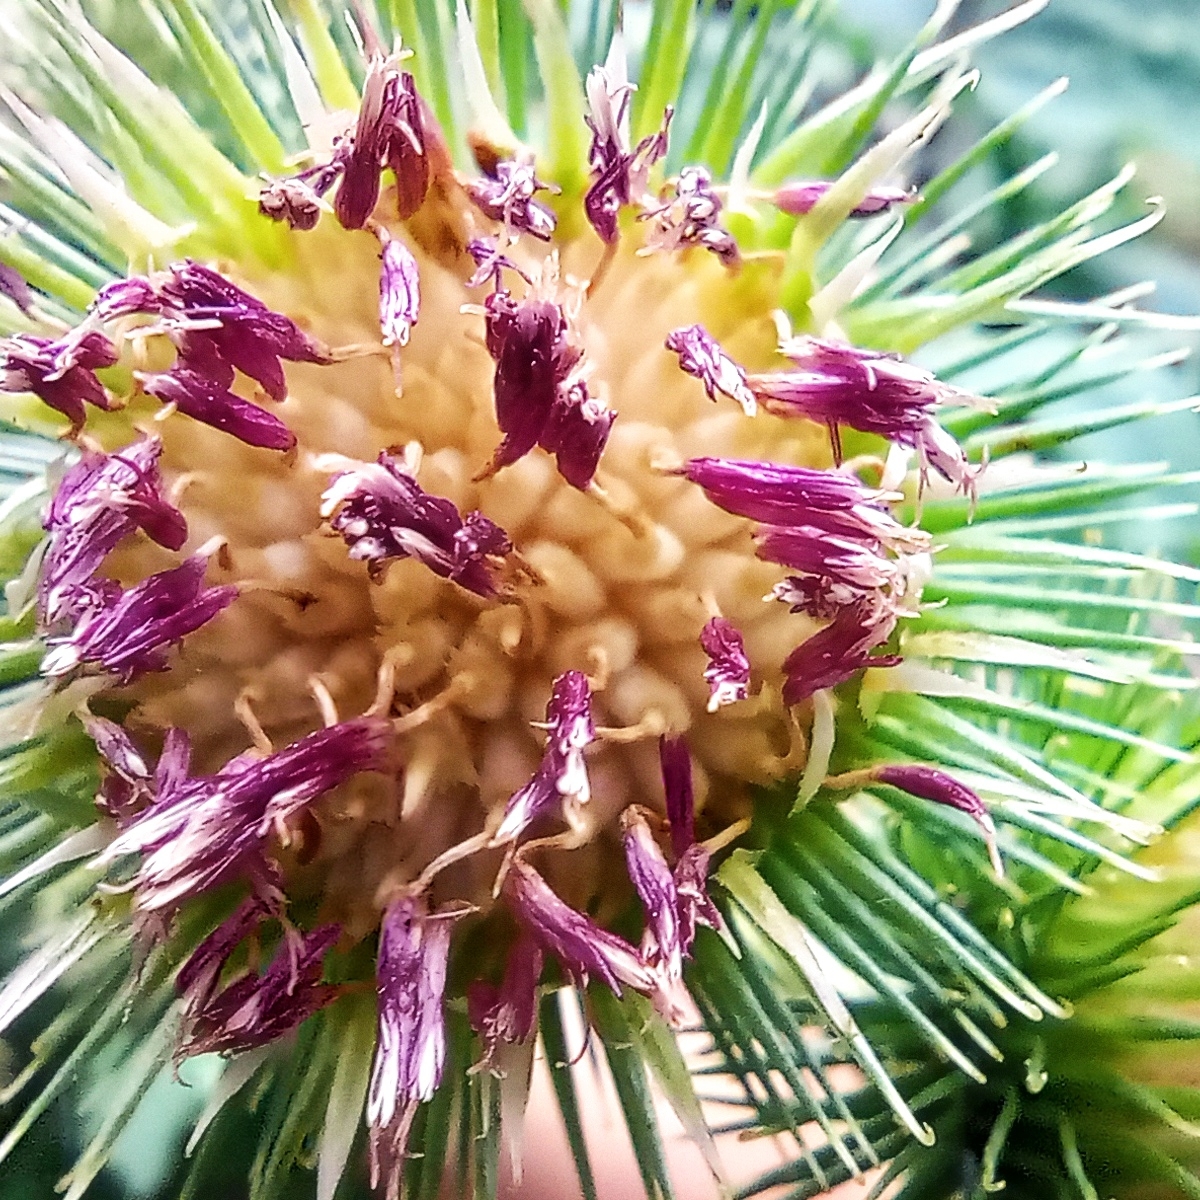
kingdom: Plantae
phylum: Tracheophyta
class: Magnoliopsida
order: Asterales
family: Asteraceae
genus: Arctium
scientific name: Arctium lappa
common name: Greater burdock
